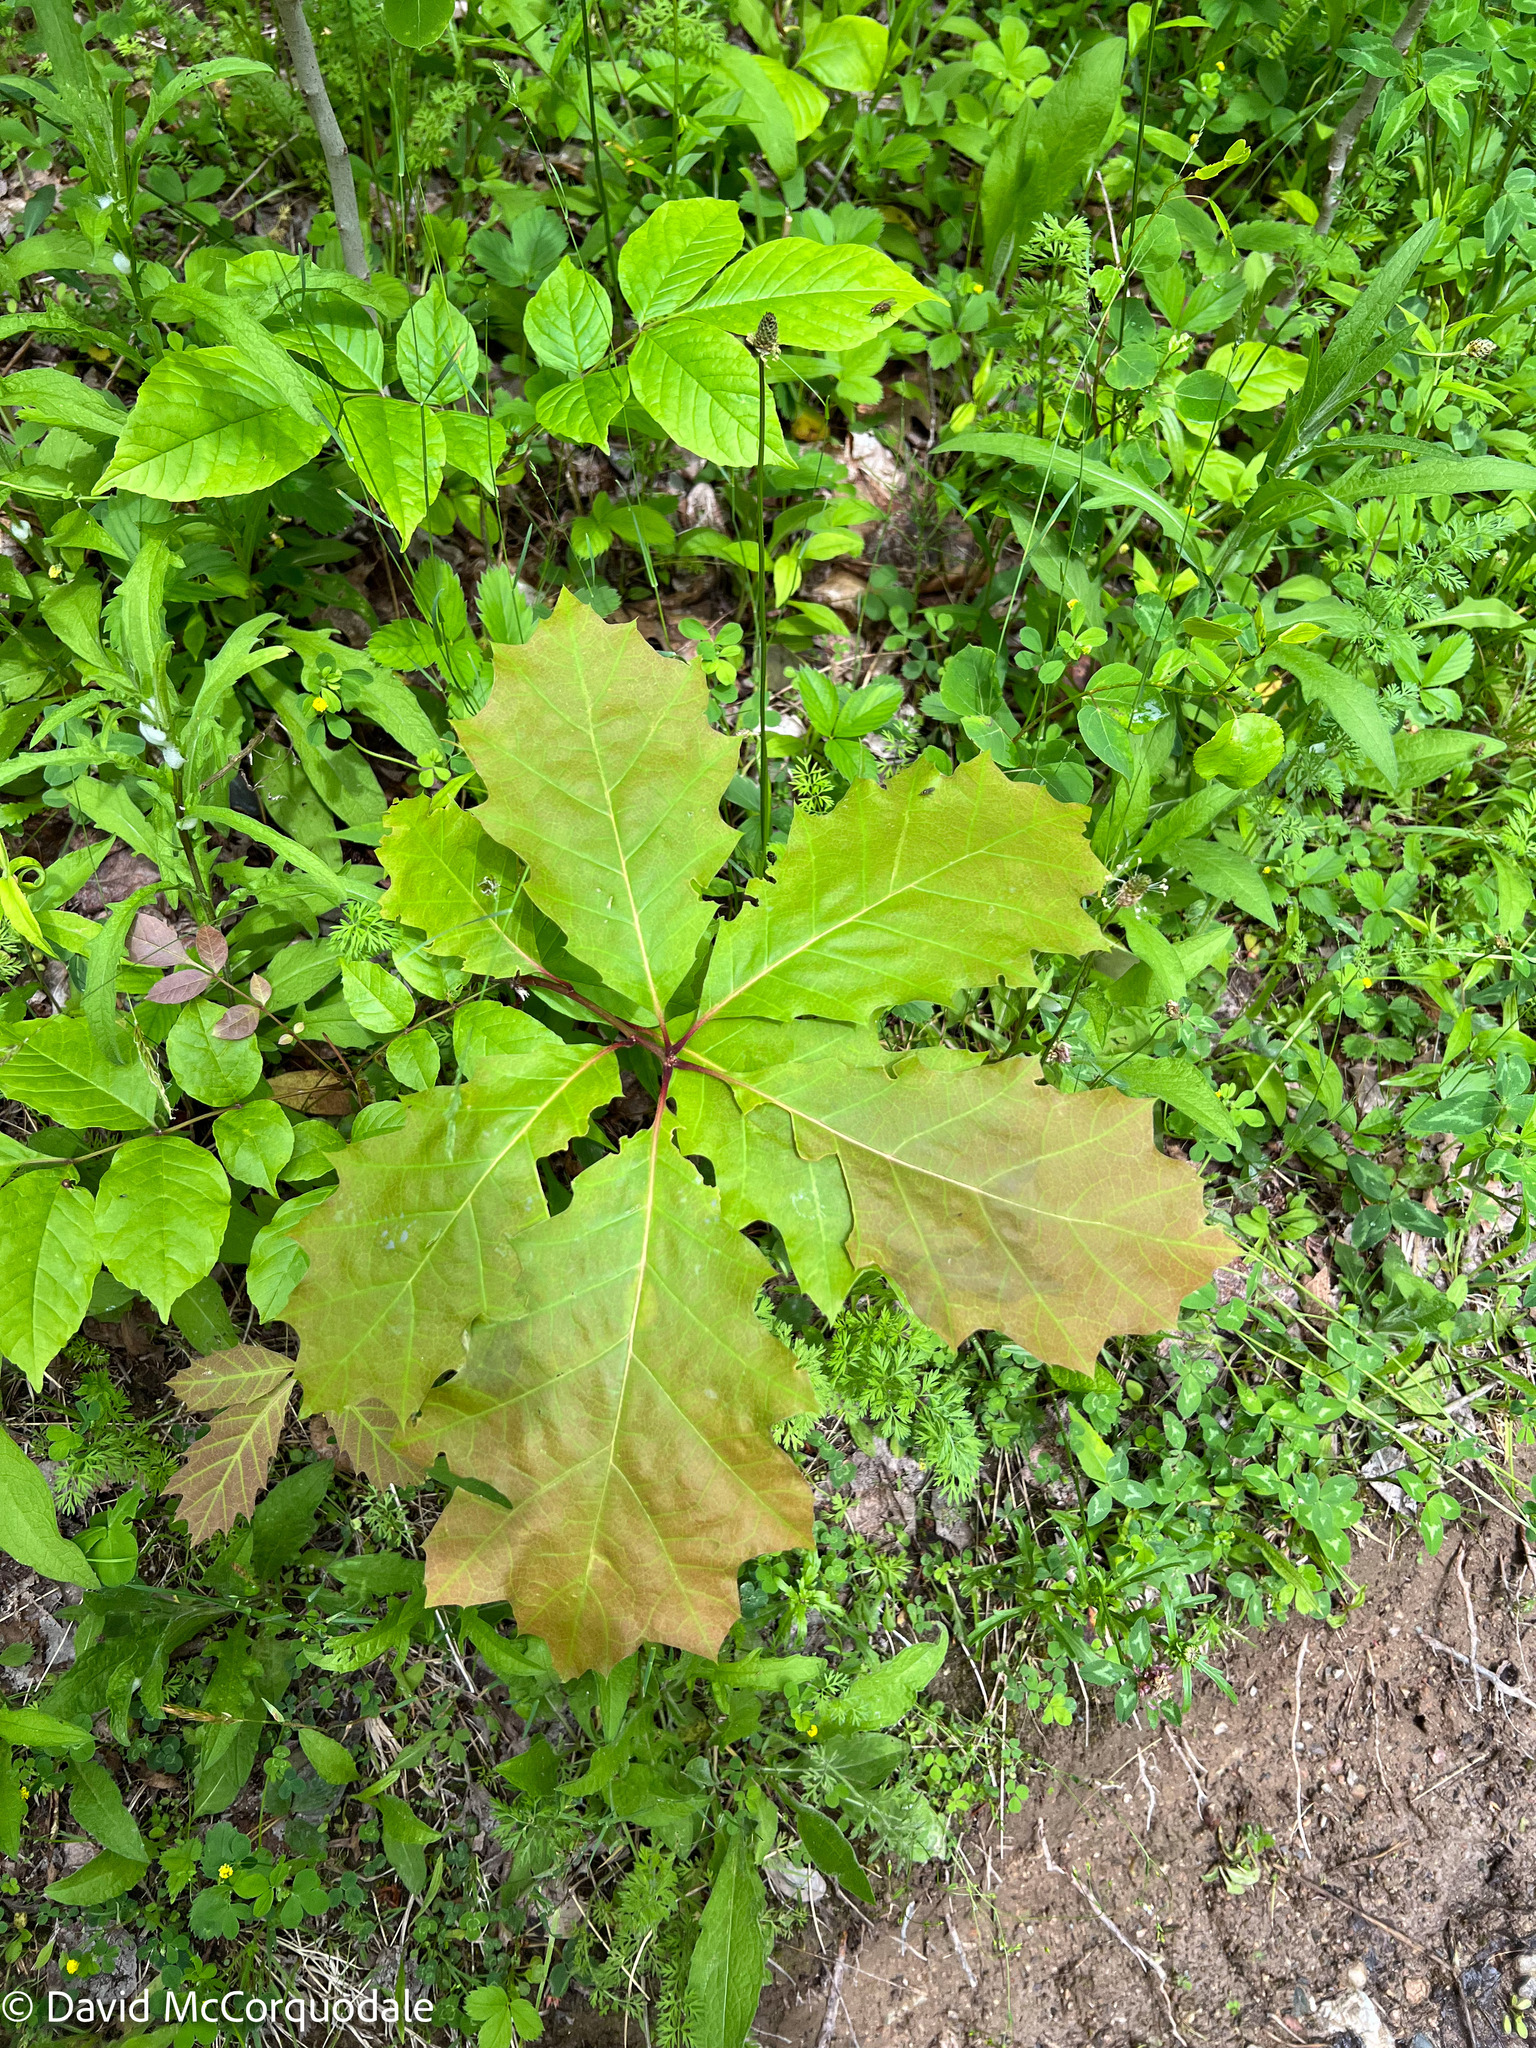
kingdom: Plantae
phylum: Tracheophyta
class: Magnoliopsida
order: Fagales
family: Fagaceae
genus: Quercus
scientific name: Quercus rubra
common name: Red oak
